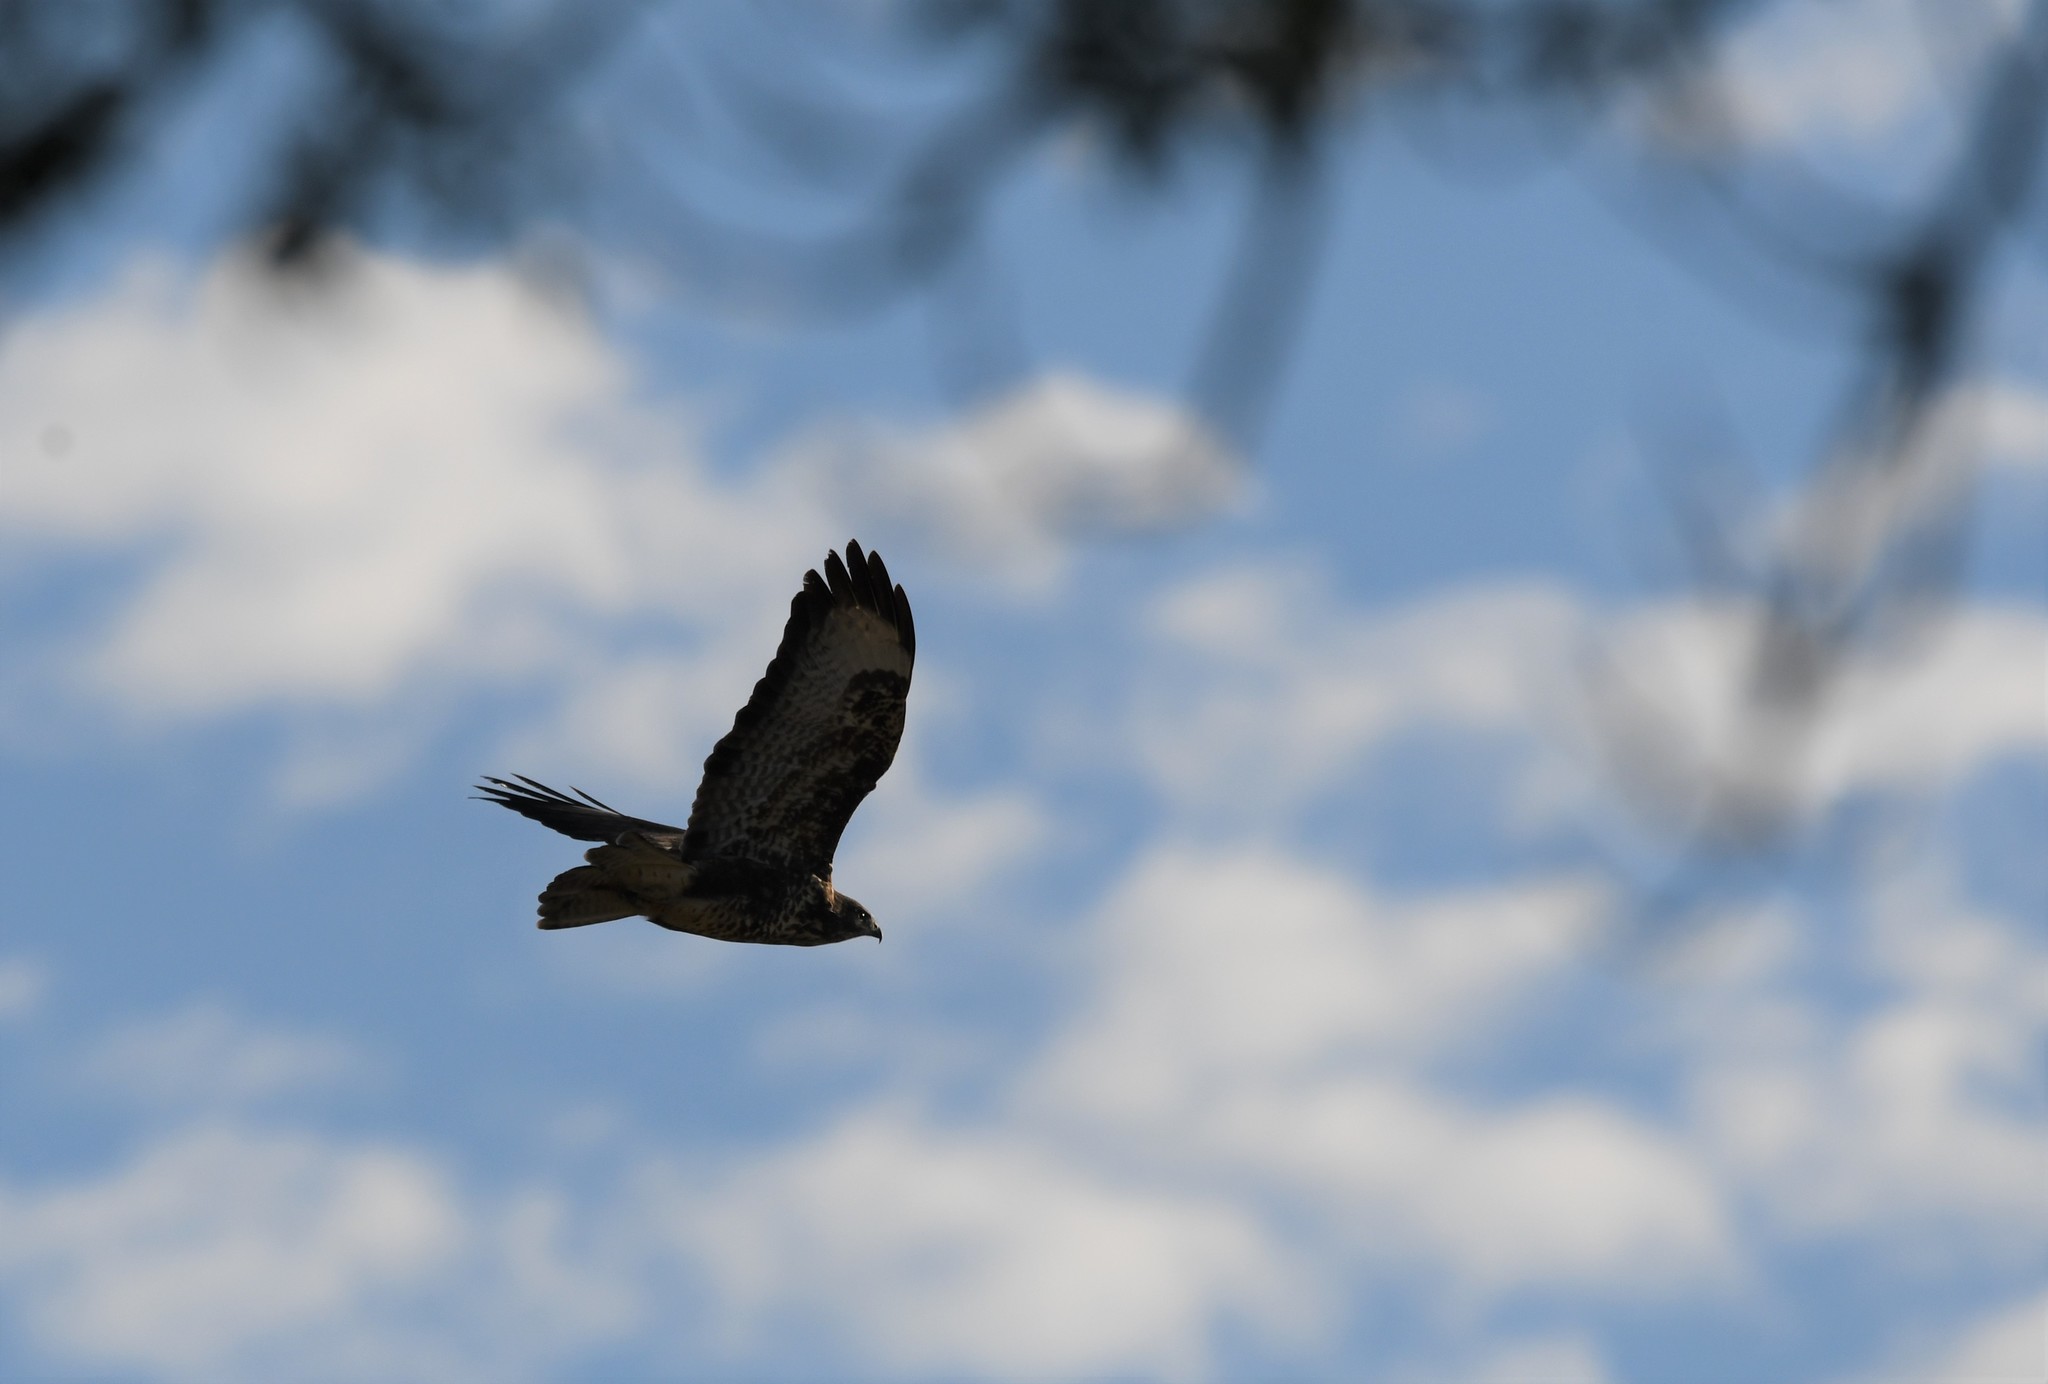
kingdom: Animalia
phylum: Chordata
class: Aves
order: Accipitriformes
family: Accipitridae
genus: Buteo
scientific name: Buteo buteo
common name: Common buzzard
